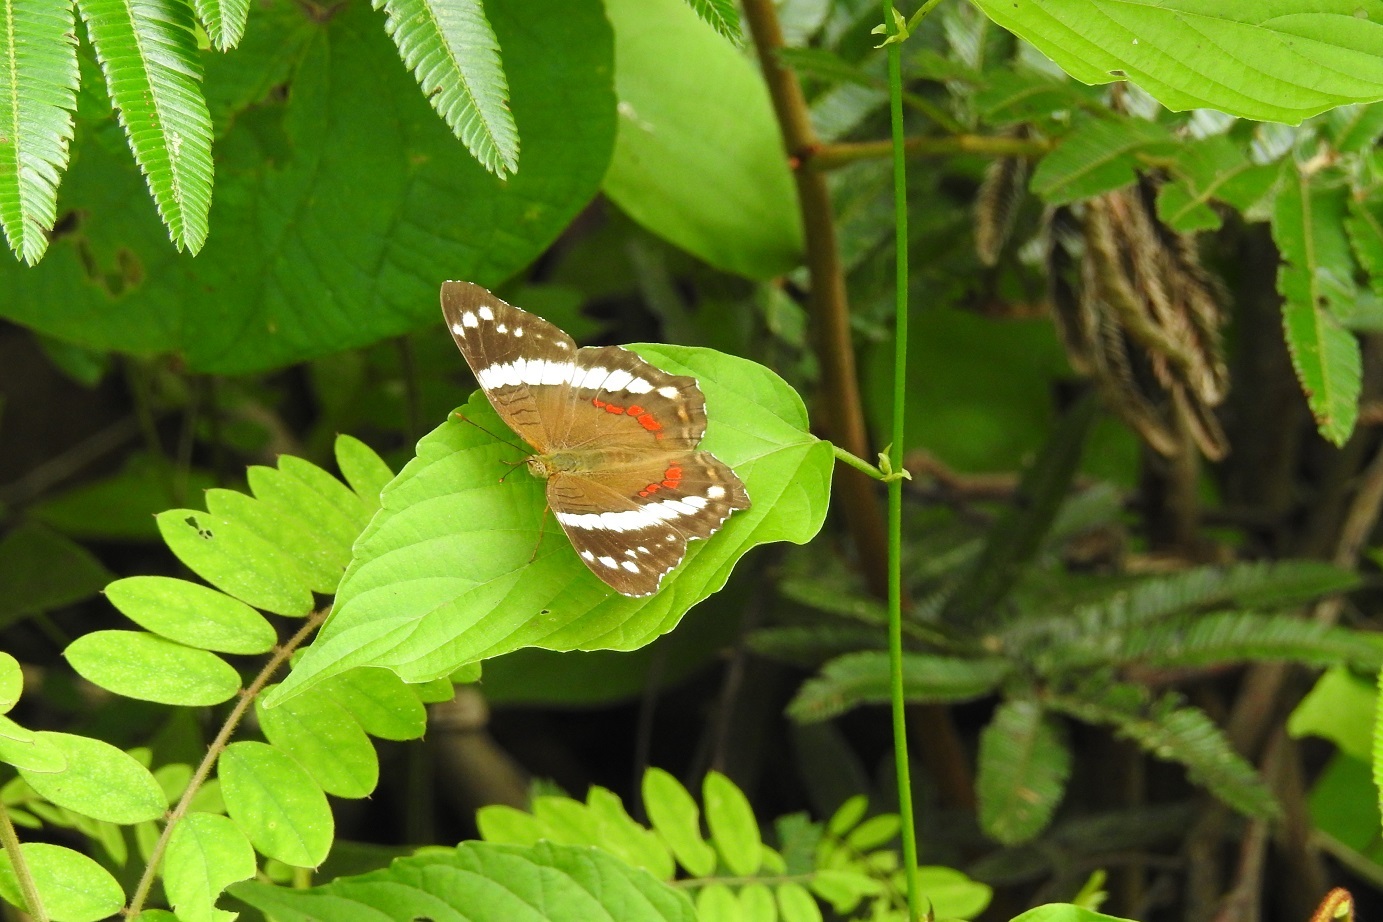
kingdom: Animalia
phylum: Arthropoda
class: Insecta
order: Lepidoptera
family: Nymphalidae
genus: Anartia
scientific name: Anartia fatima
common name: Banded peacock
